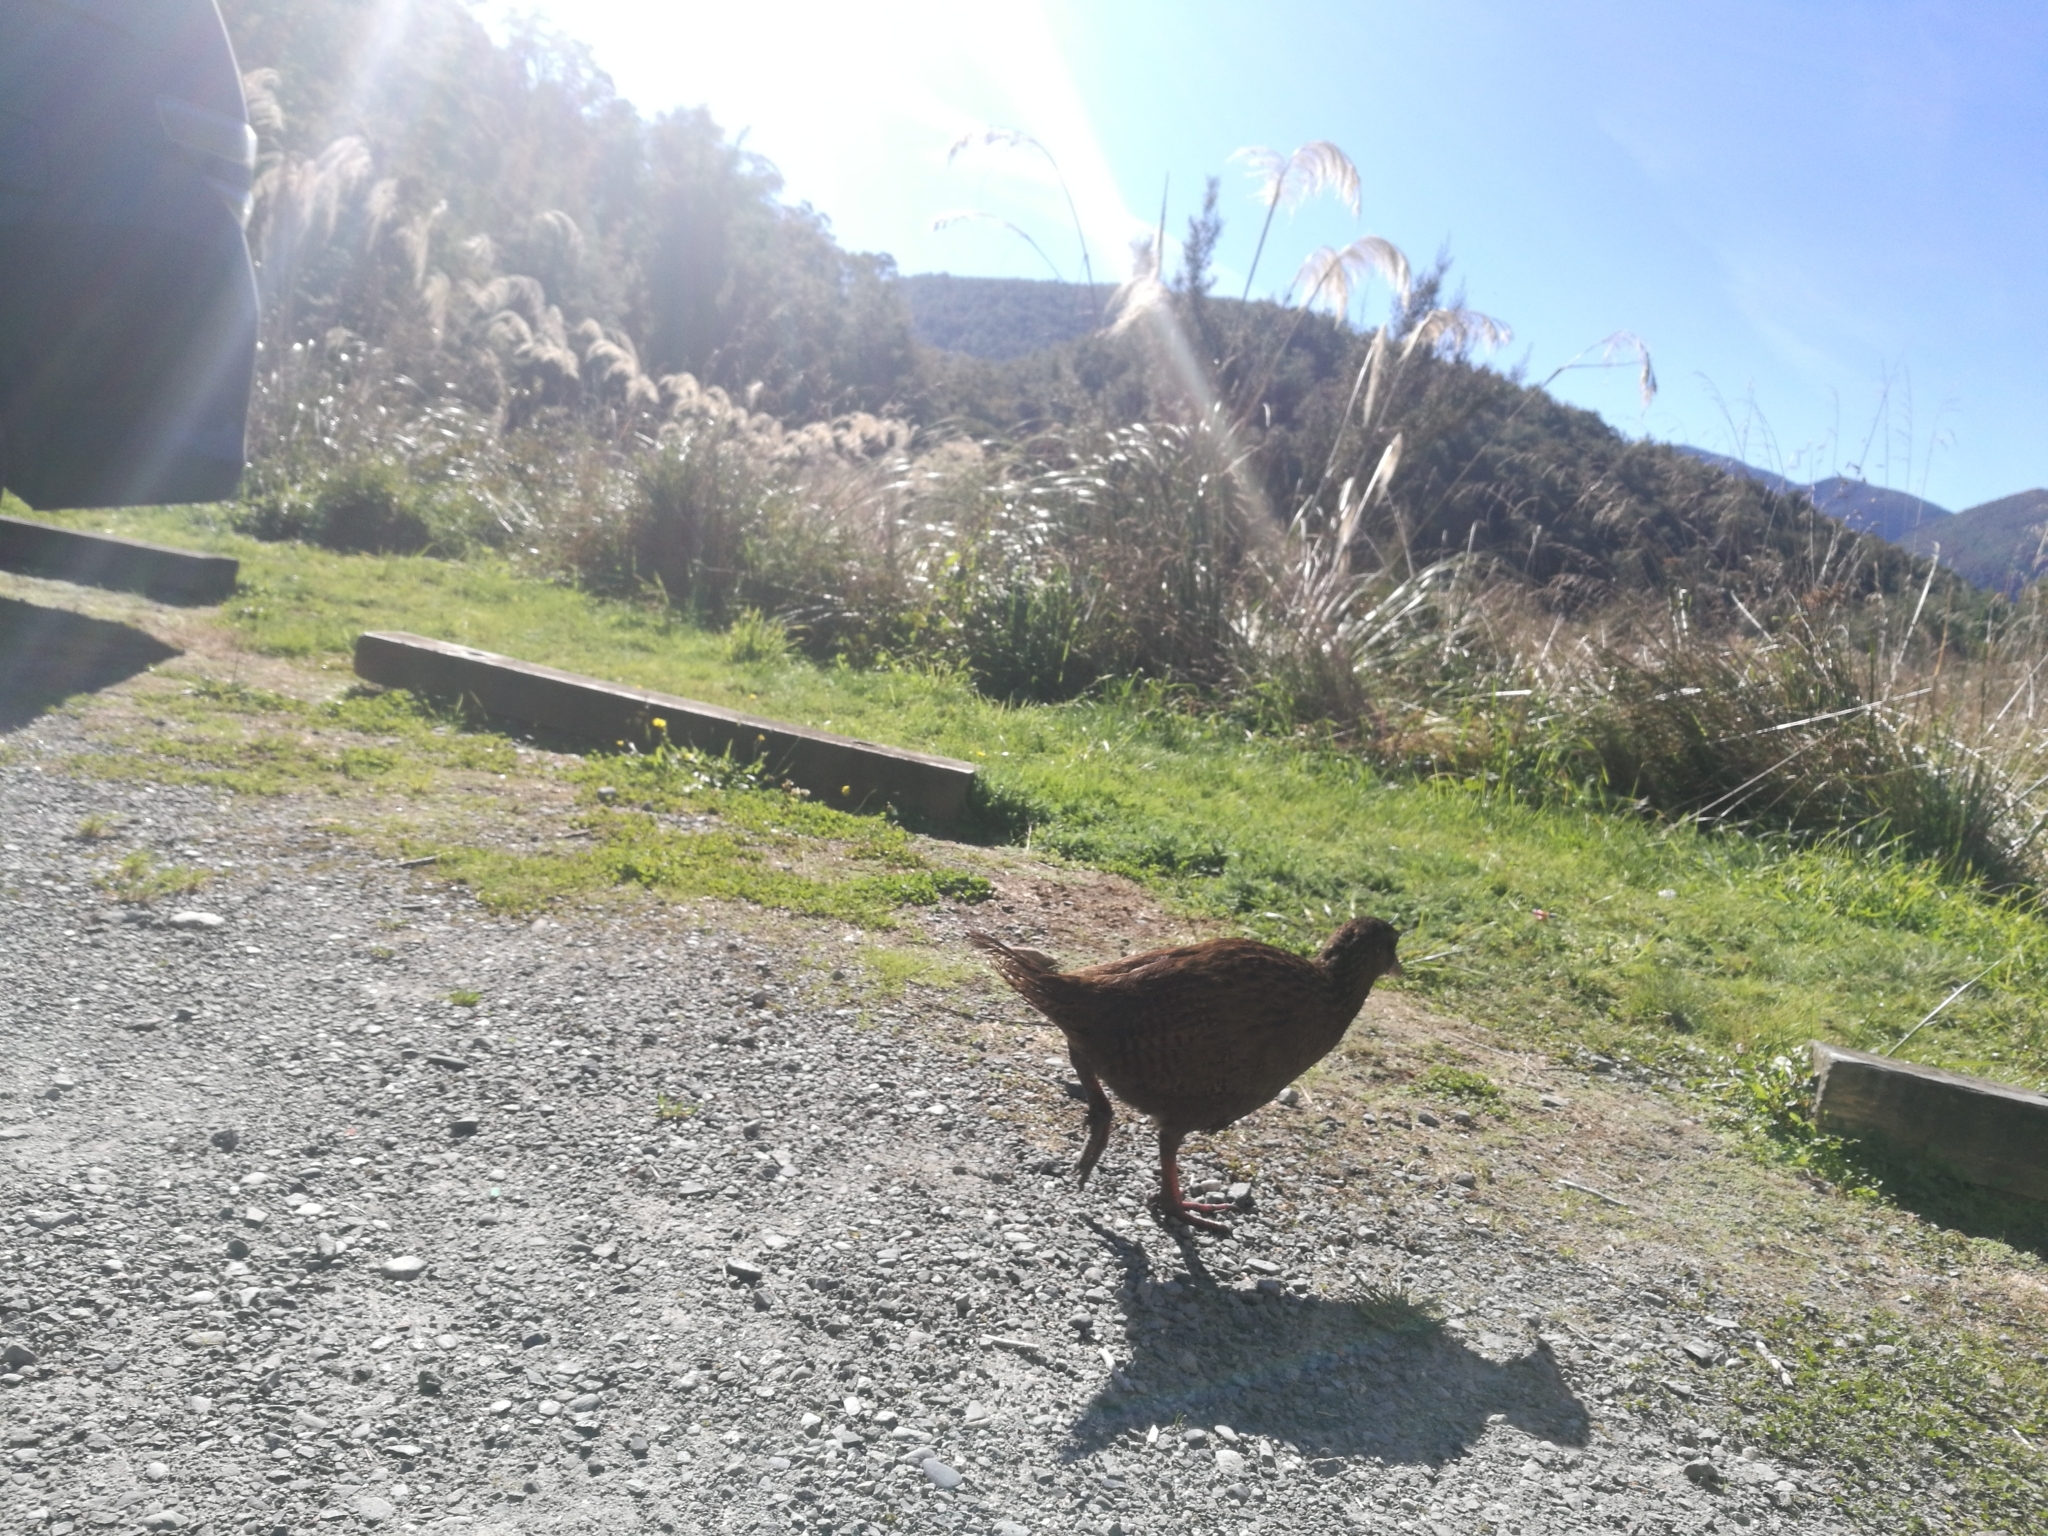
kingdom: Animalia
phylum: Chordata
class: Aves
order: Gruiformes
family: Rallidae
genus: Gallirallus
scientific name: Gallirallus australis
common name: Weka
